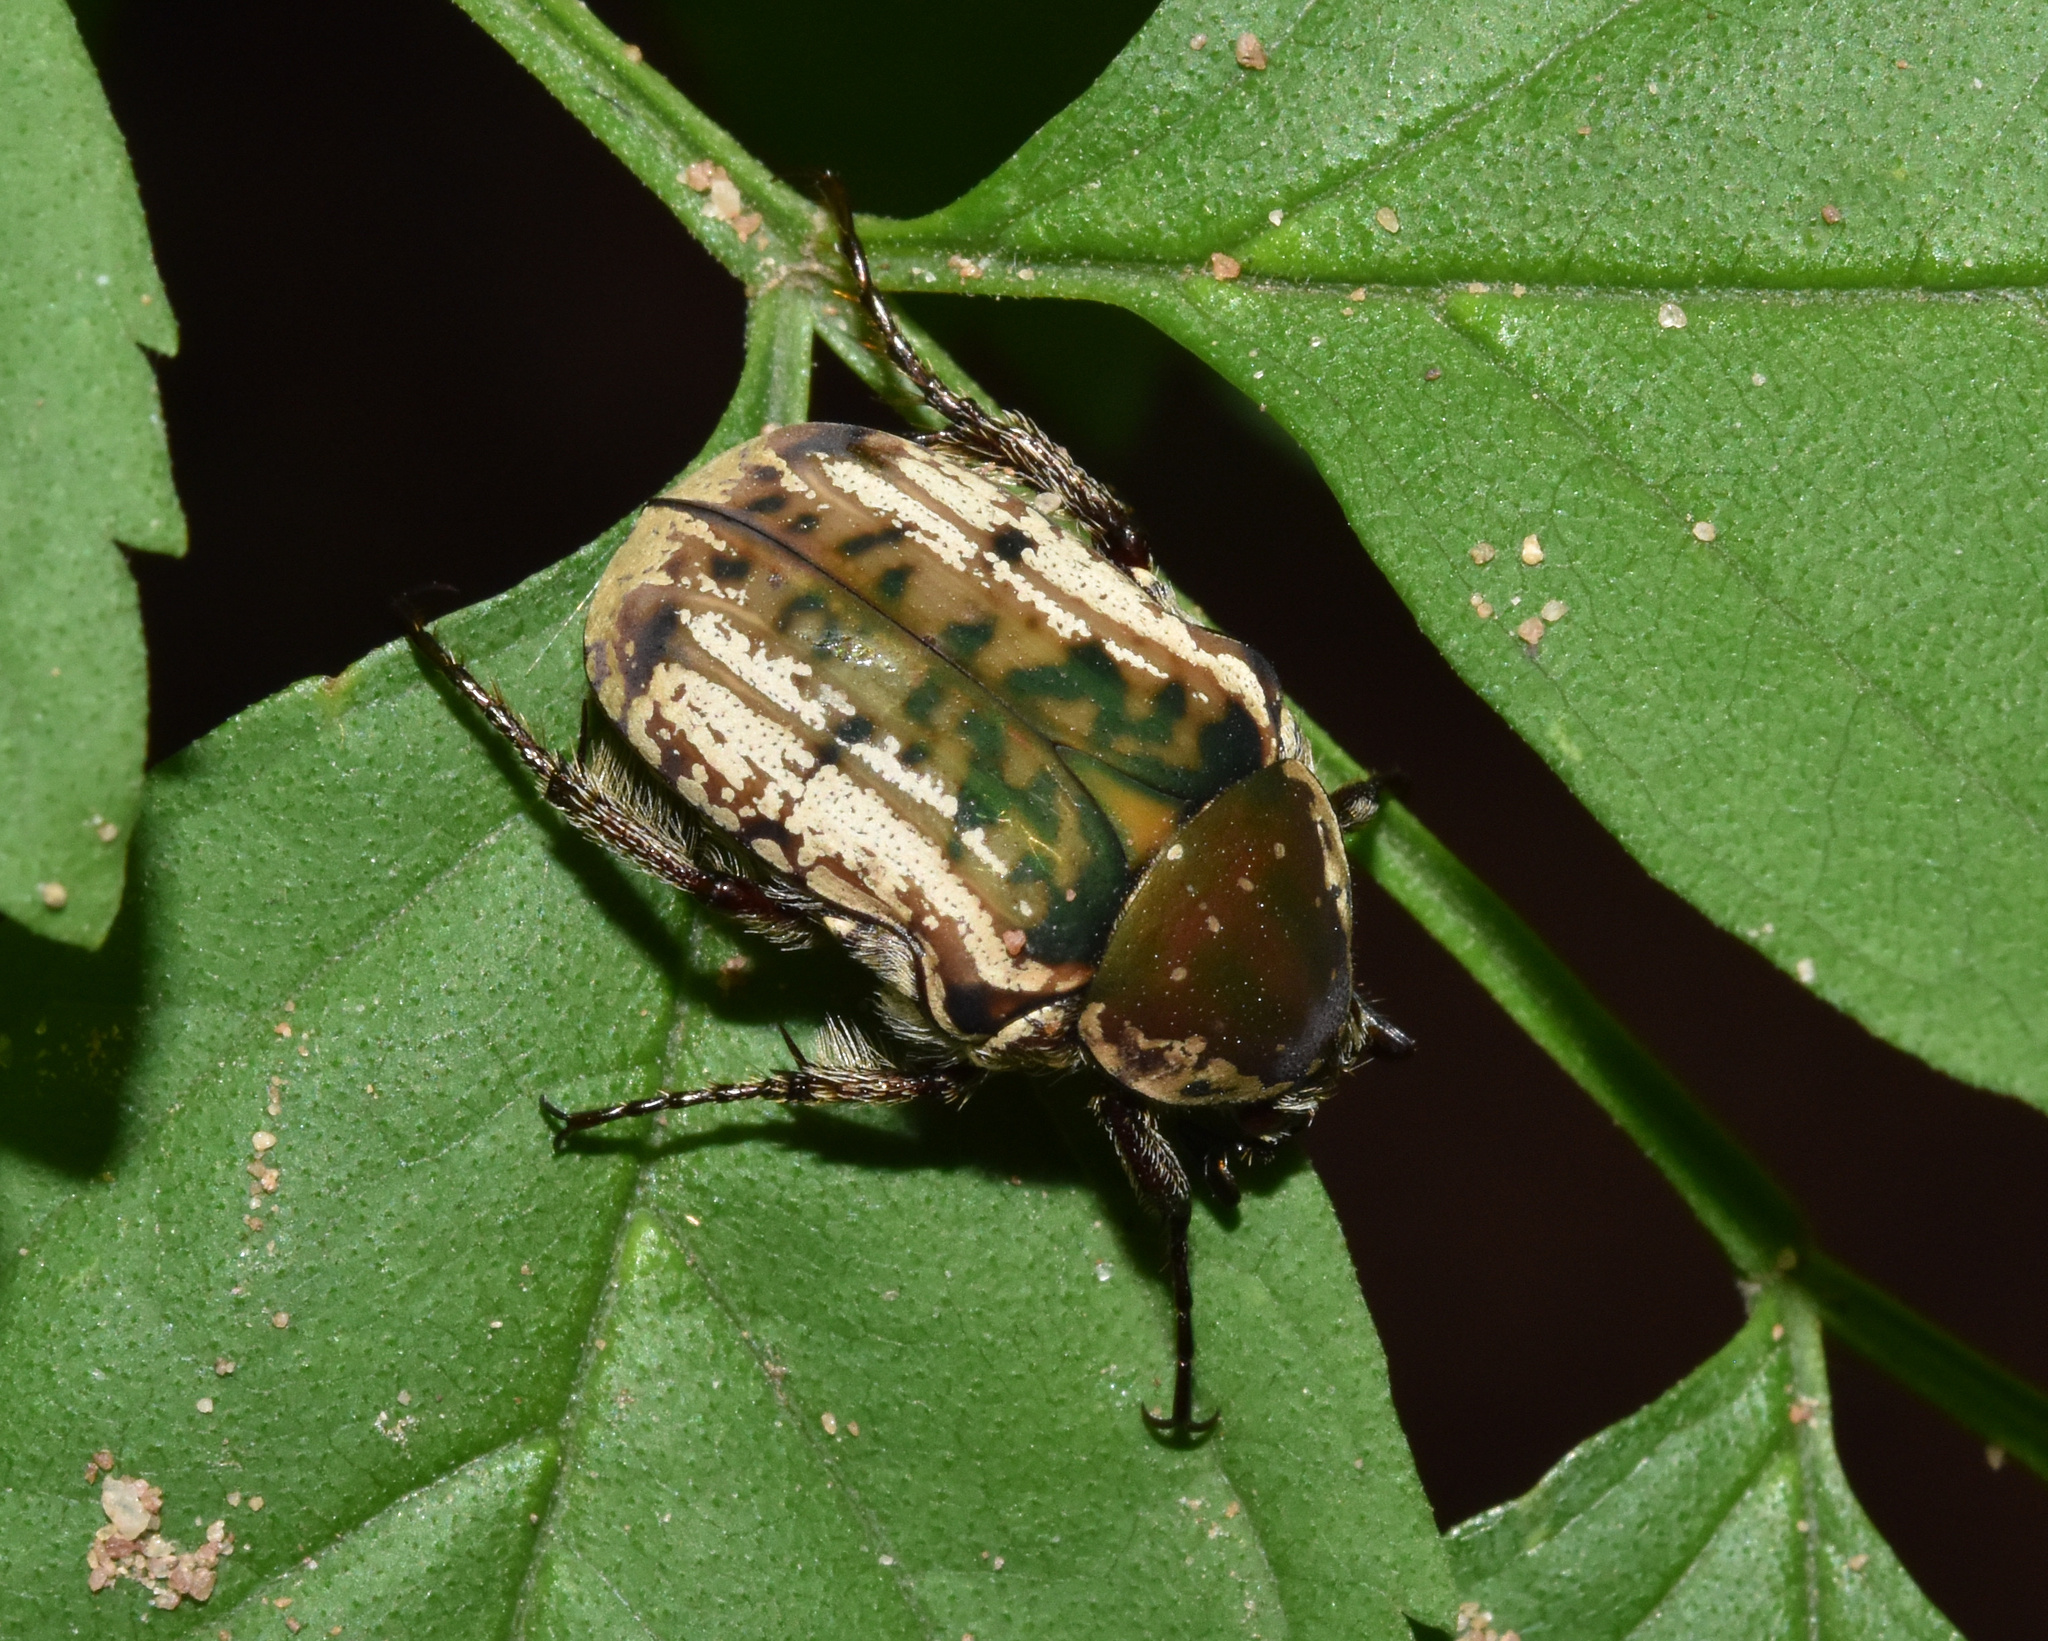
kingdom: Animalia
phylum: Arthropoda
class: Insecta
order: Coleoptera
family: Scarabaeidae
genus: Elaphinis
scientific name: Elaphinis irrorata
